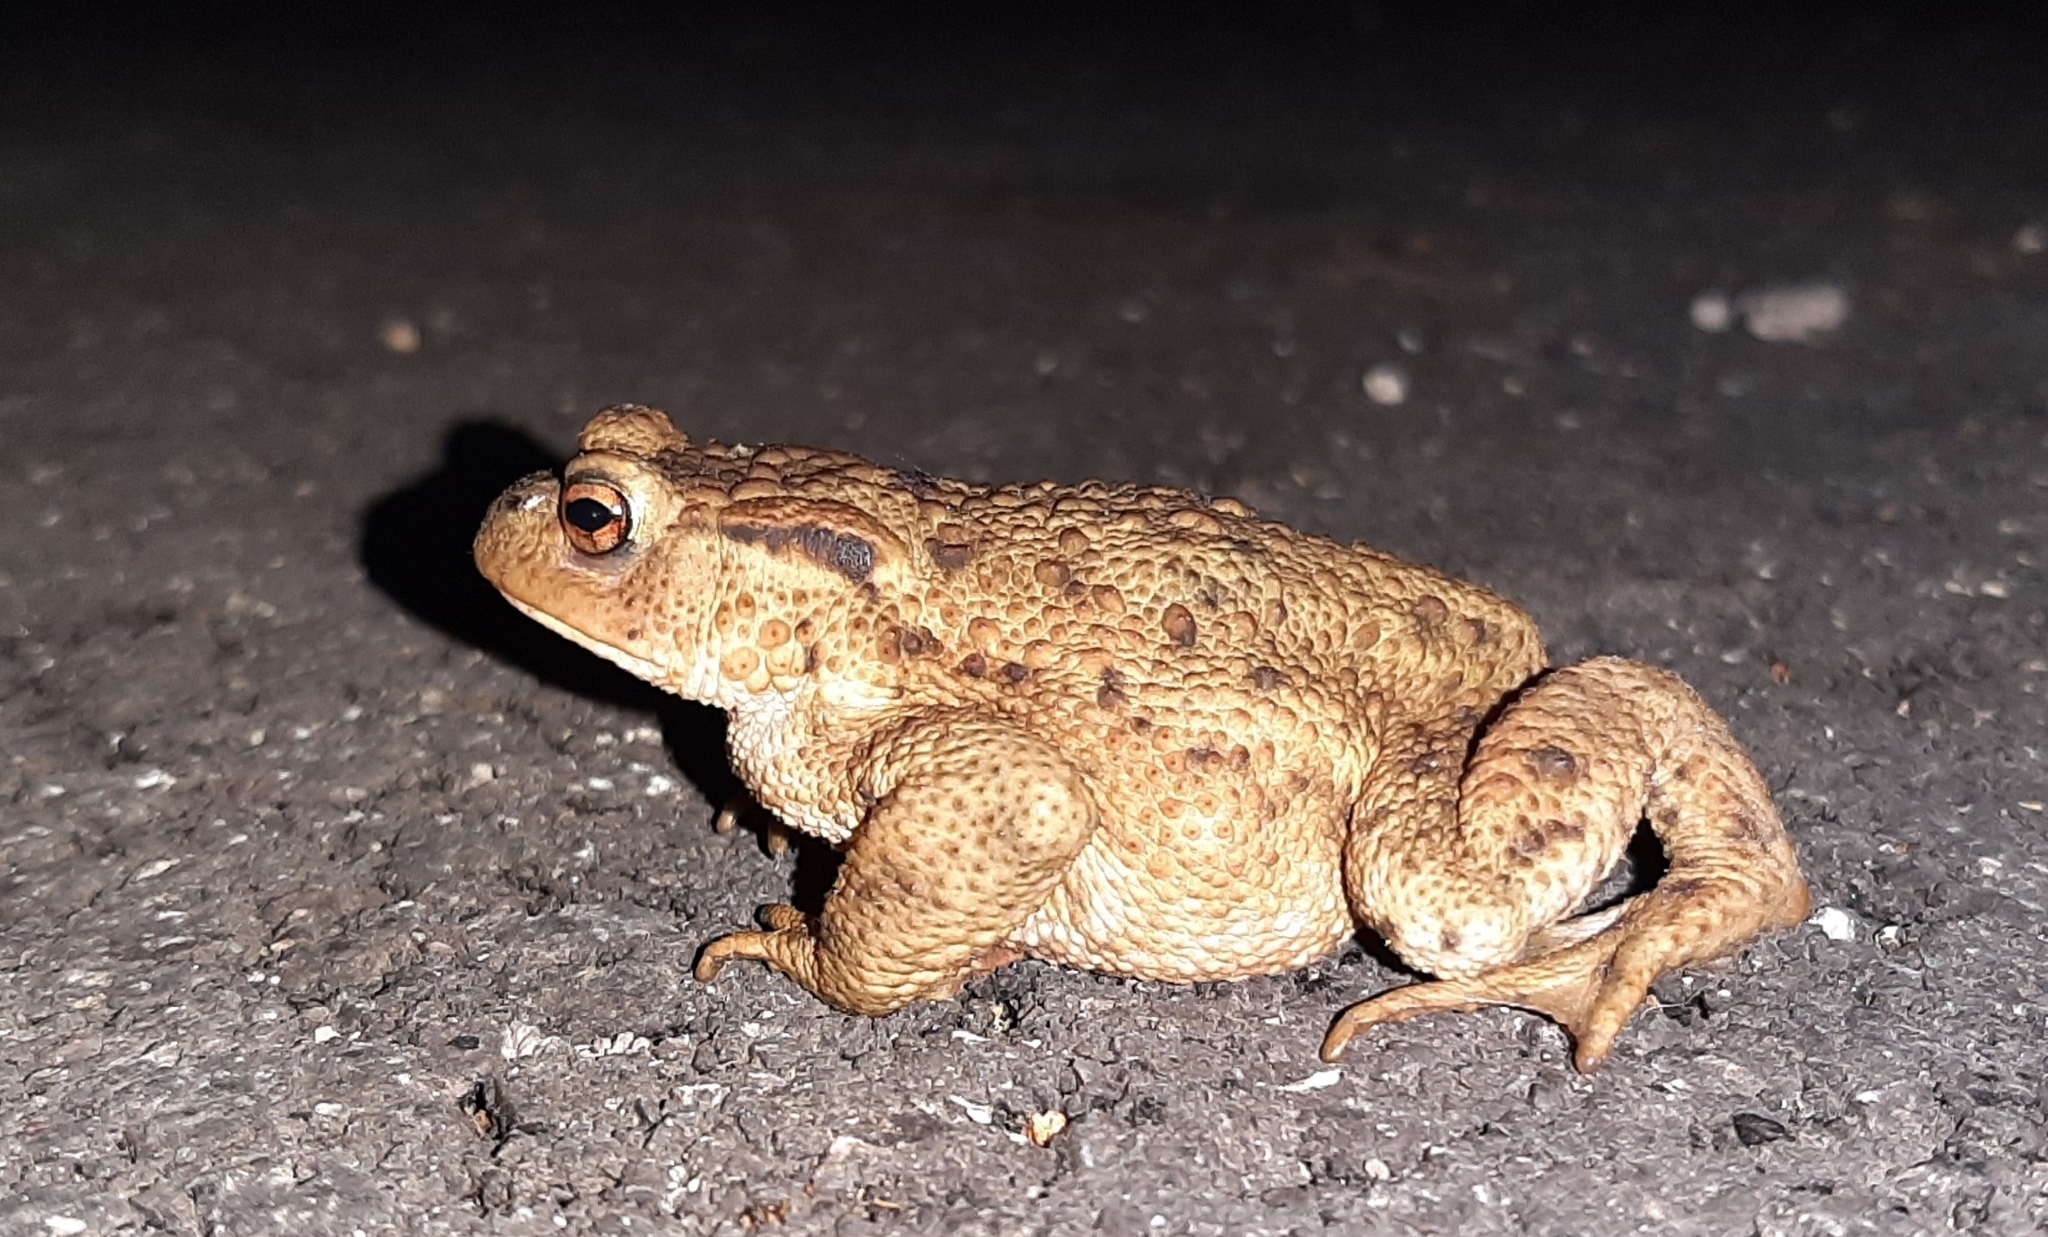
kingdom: Animalia
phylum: Chordata
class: Amphibia
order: Anura
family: Bufonidae
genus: Bufo
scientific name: Bufo bufo
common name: Common toad
